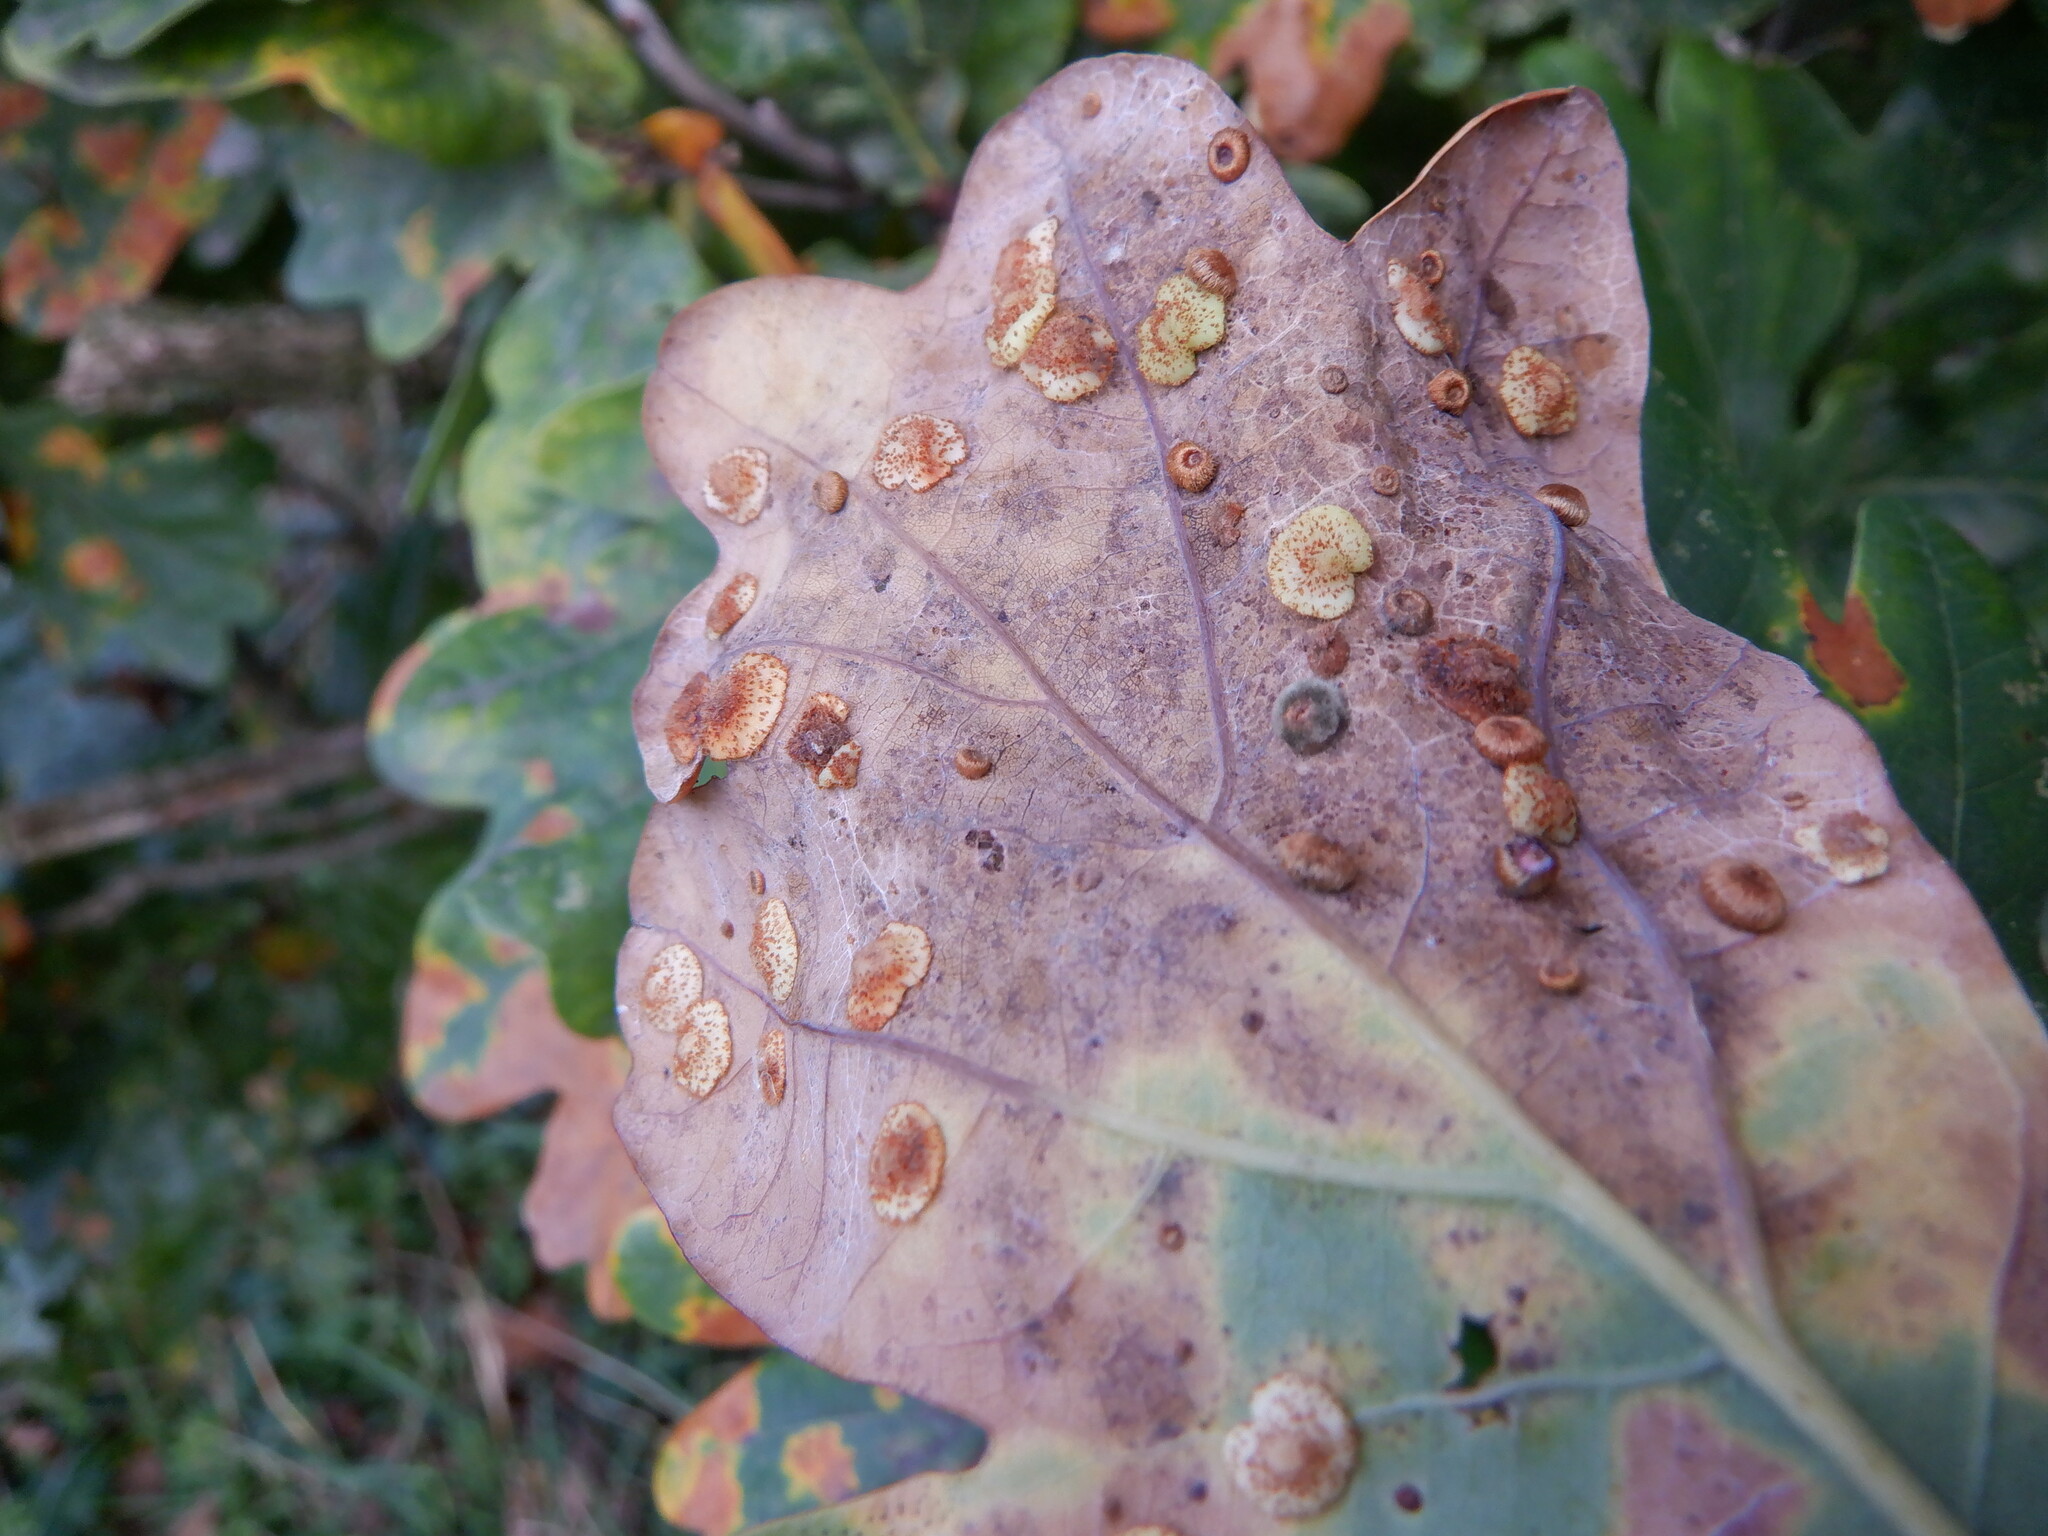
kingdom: Animalia
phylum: Arthropoda
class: Insecta
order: Hymenoptera
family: Cynipidae
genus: Neuroterus
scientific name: Neuroterus quercusbaccarum
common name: Common spangle gall
